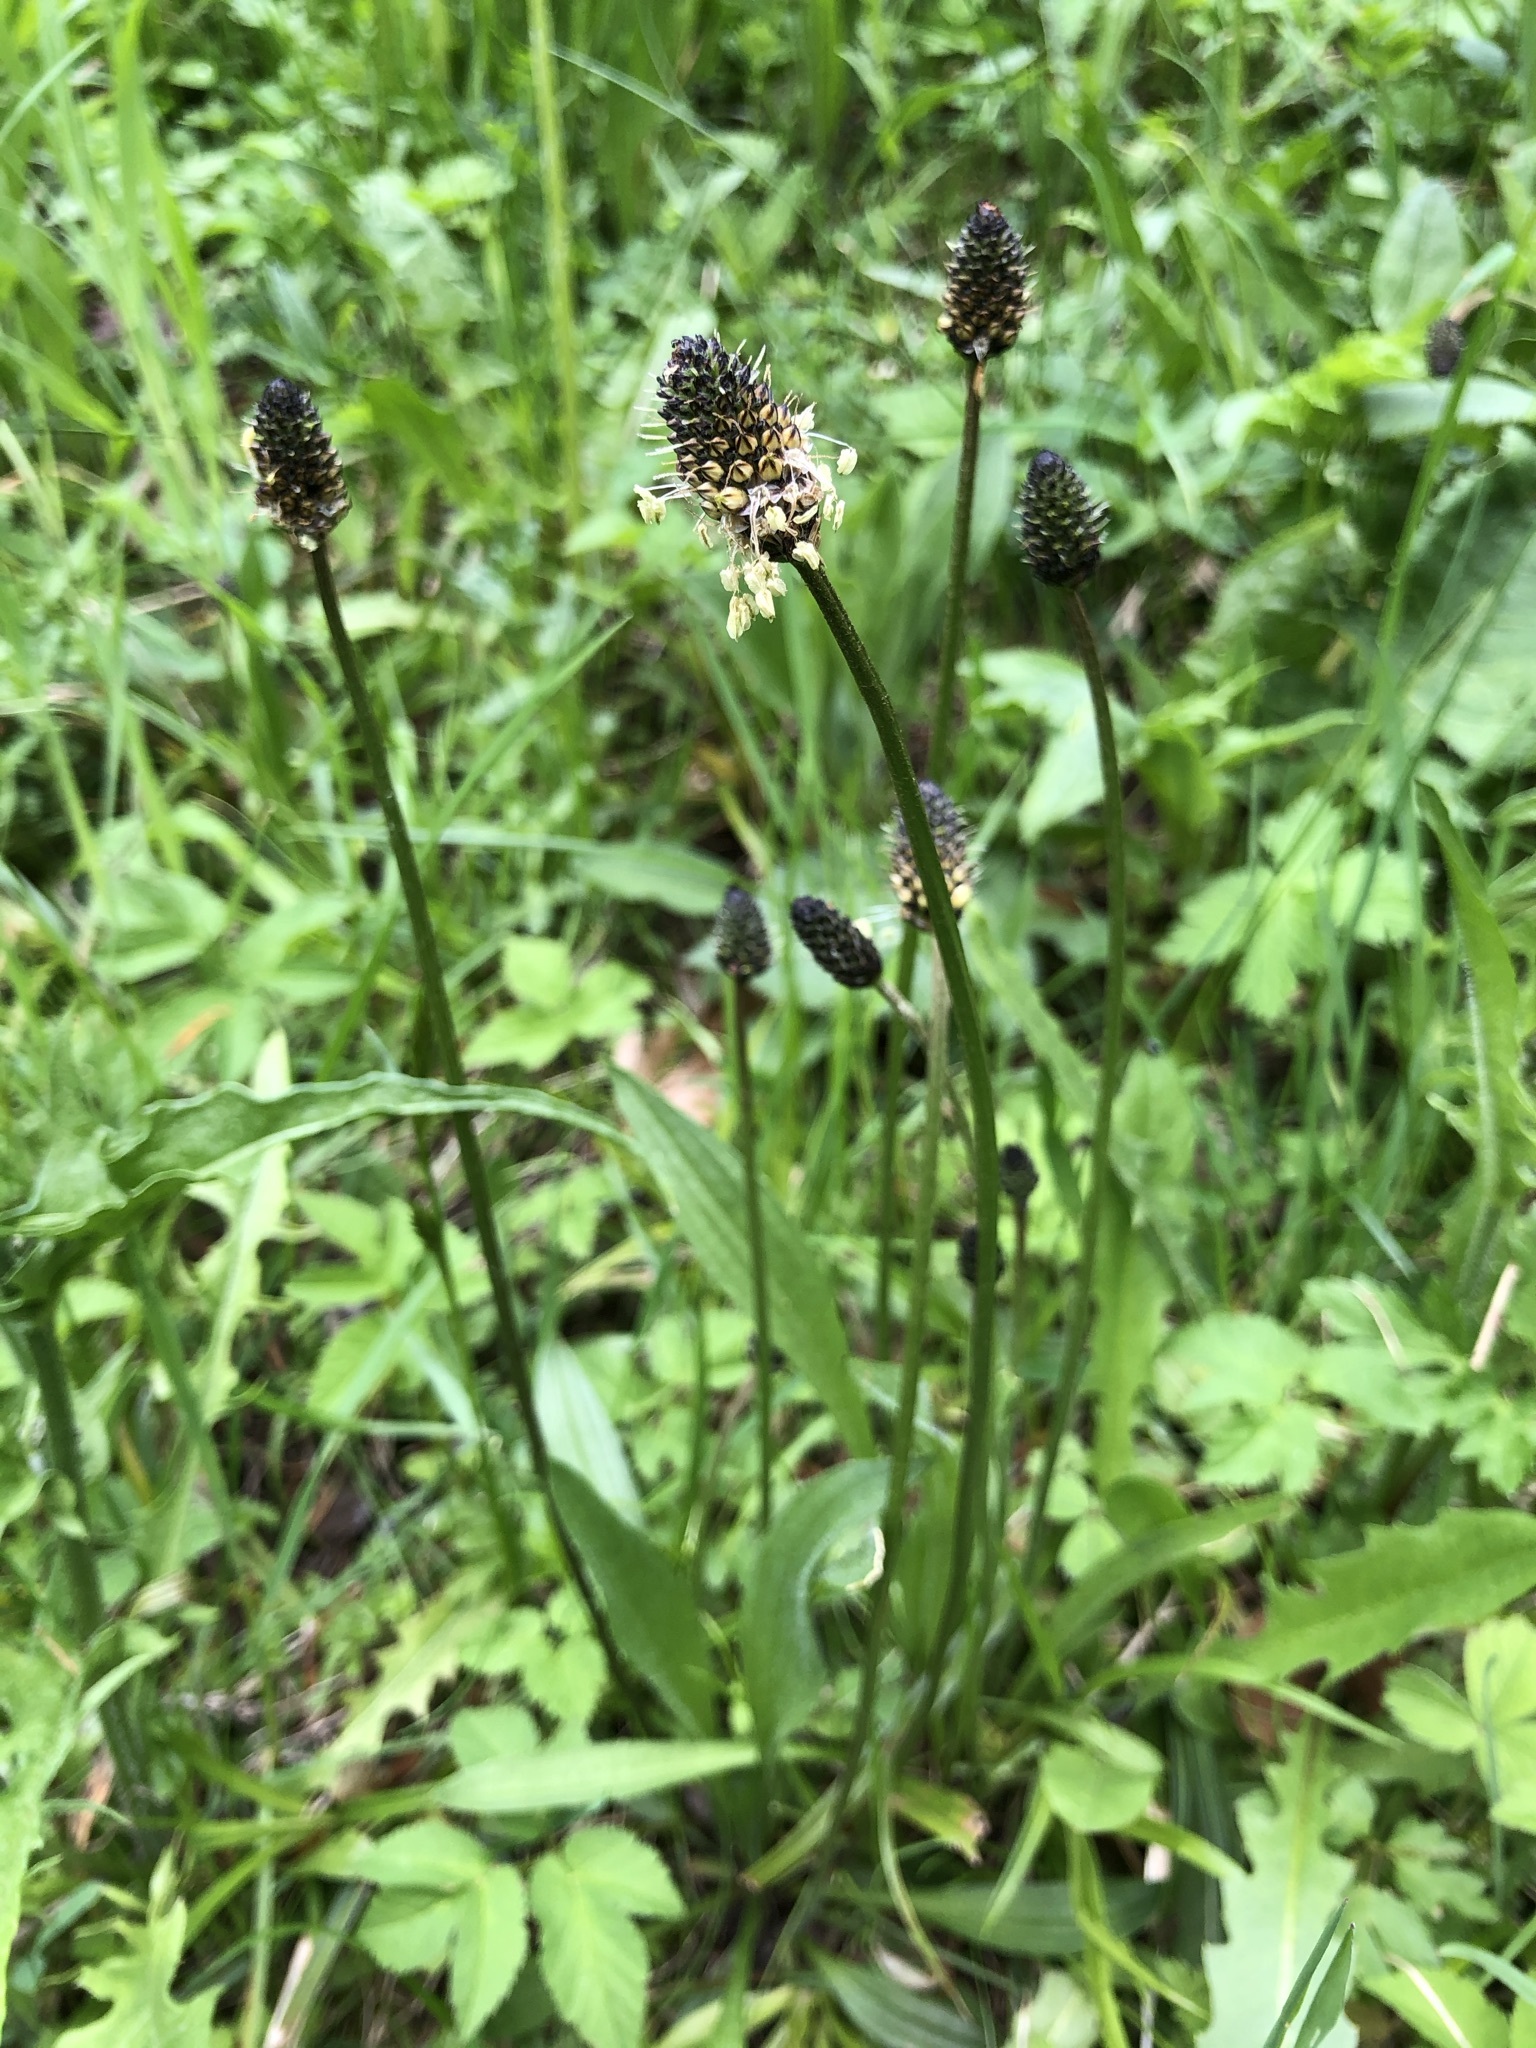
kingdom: Plantae
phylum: Tracheophyta
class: Magnoliopsida
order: Lamiales
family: Plantaginaceae
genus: Plantago
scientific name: Plantago lanceolata
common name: Ribwort plantain
